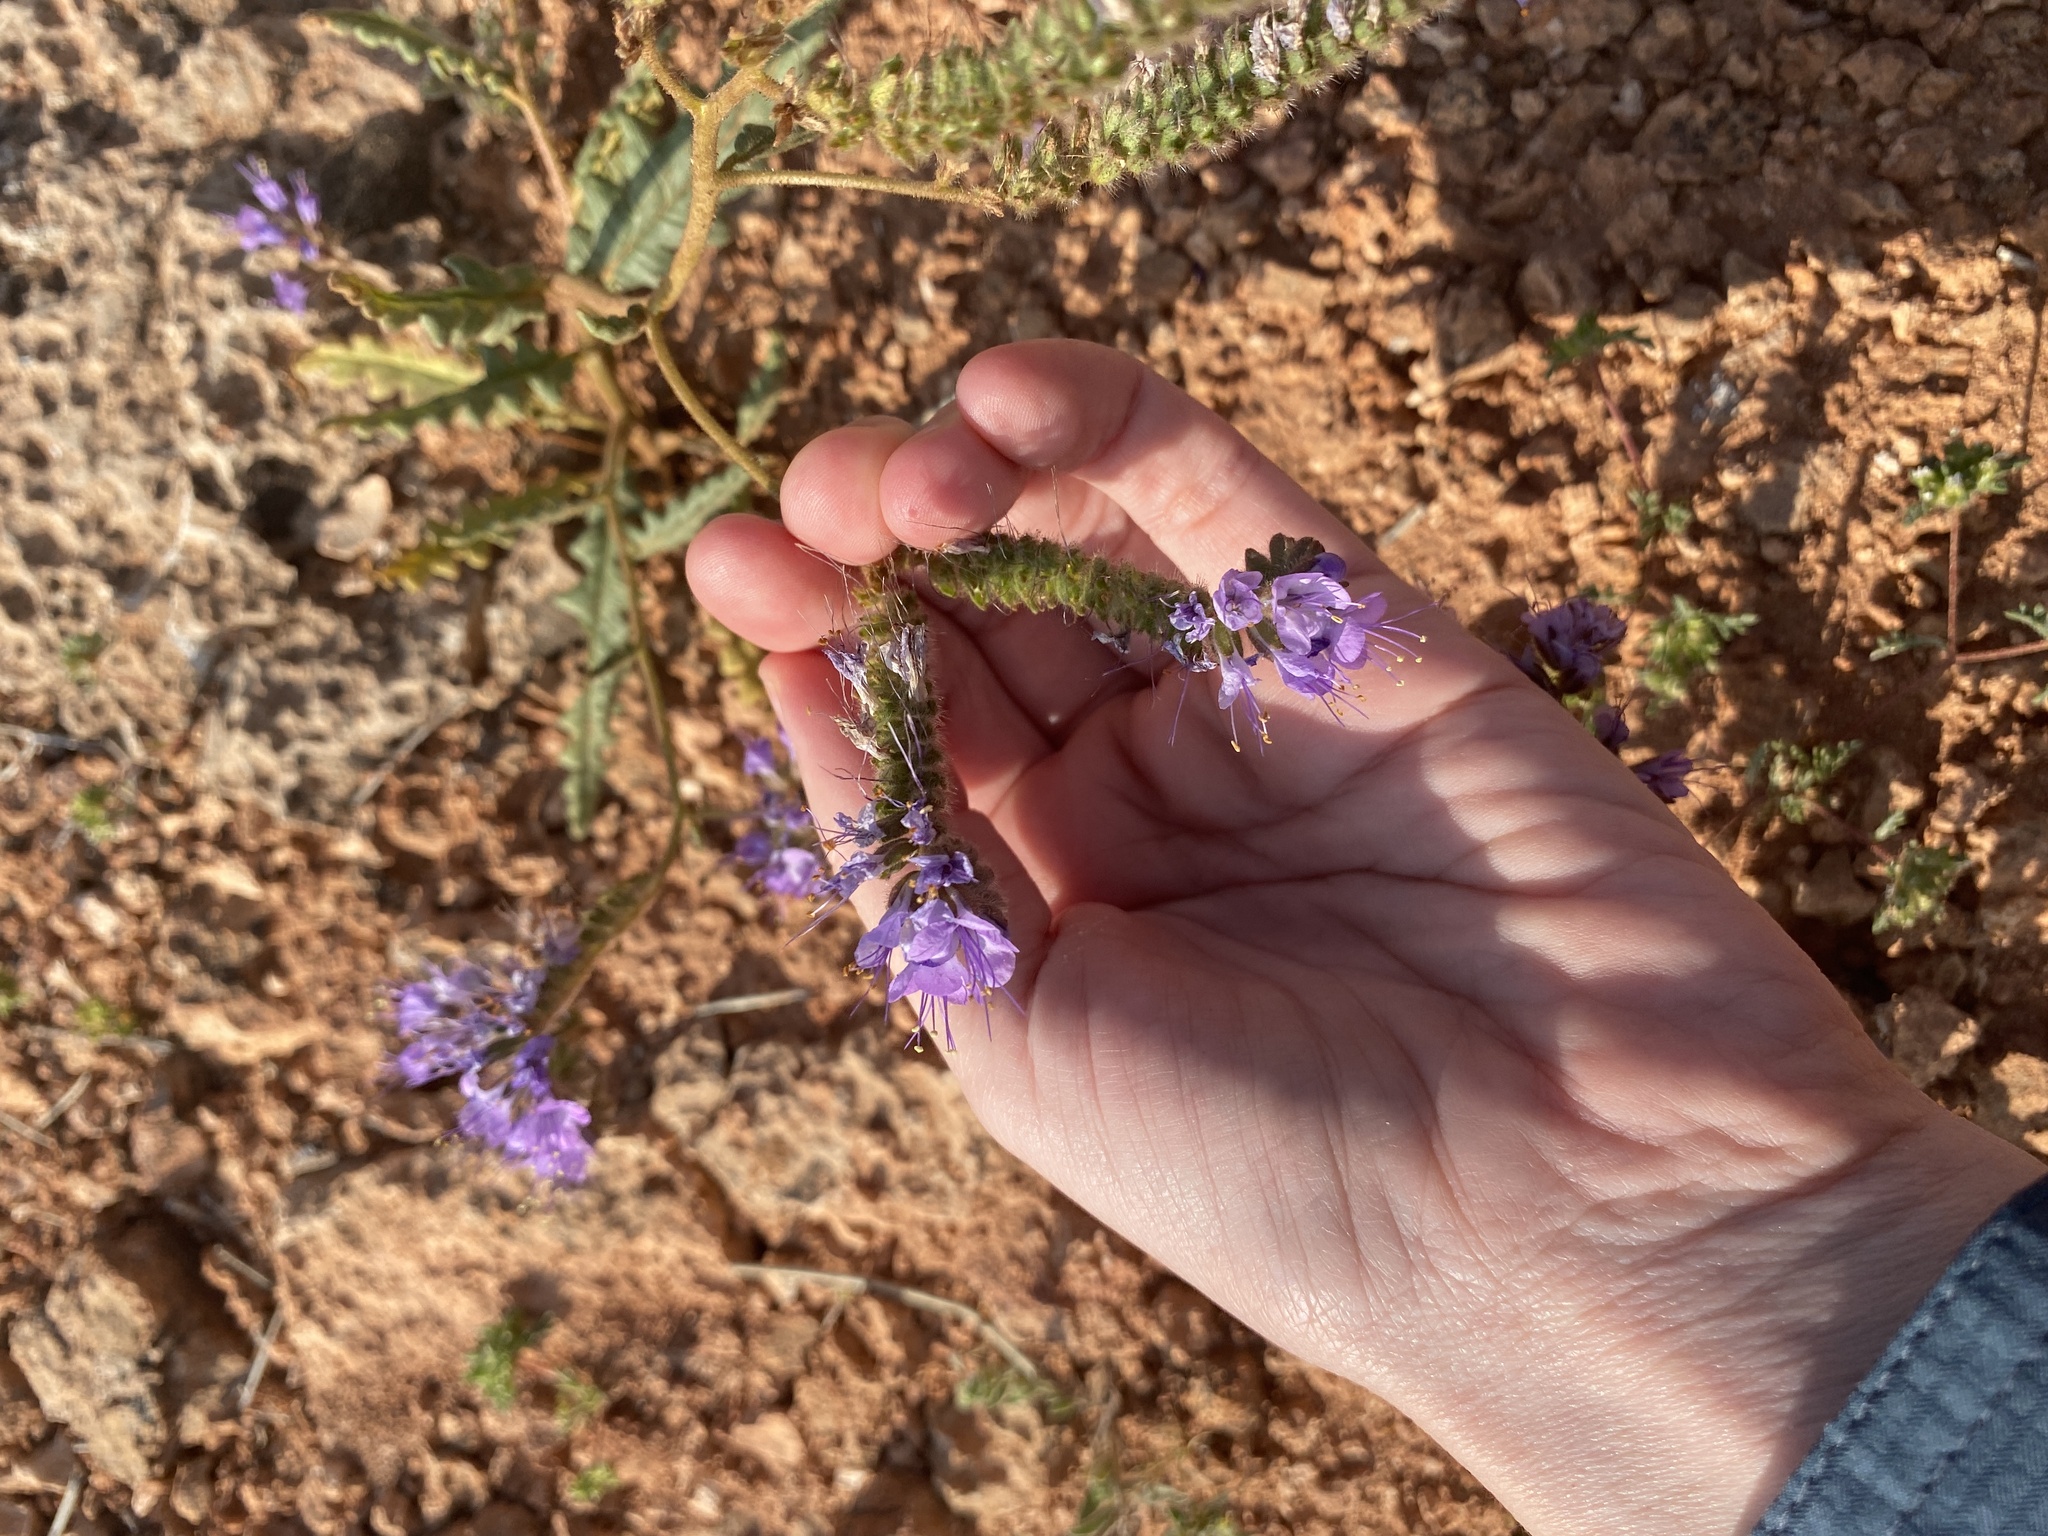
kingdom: Plantae
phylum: Tracheophyta
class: Magnoliopsida
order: Boraginales
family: Hydrophyllaceae
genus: Phacelia
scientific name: Phacelia crenulata
